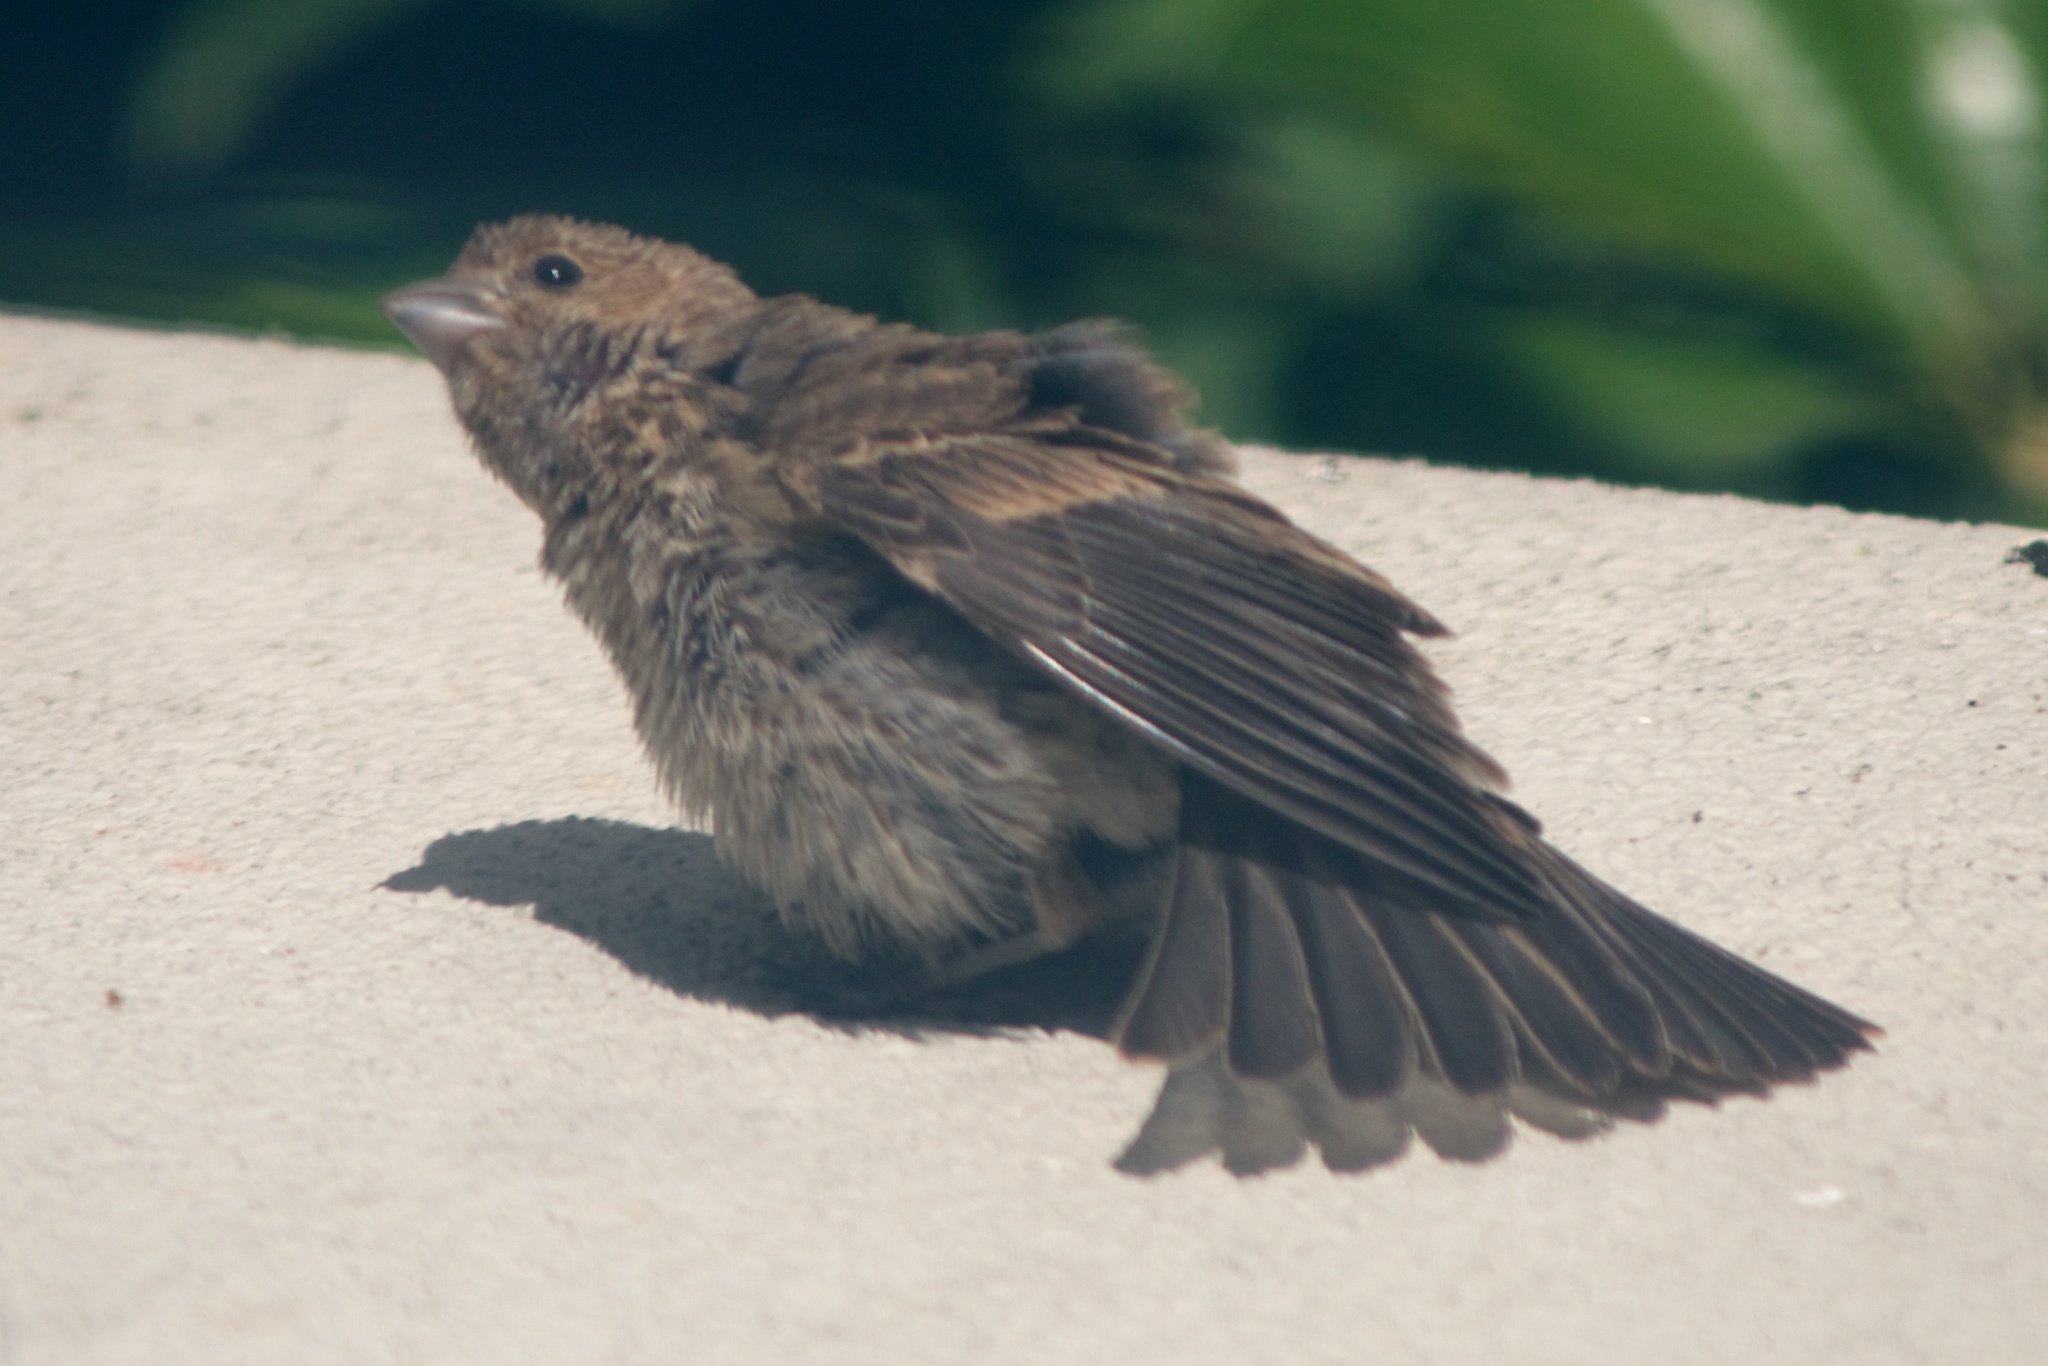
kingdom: Animalia
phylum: Chordata
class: Aves
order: Passeriformes
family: Fringillidae
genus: Haemorhous
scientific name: Haemorhous mexicanus
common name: House finch
